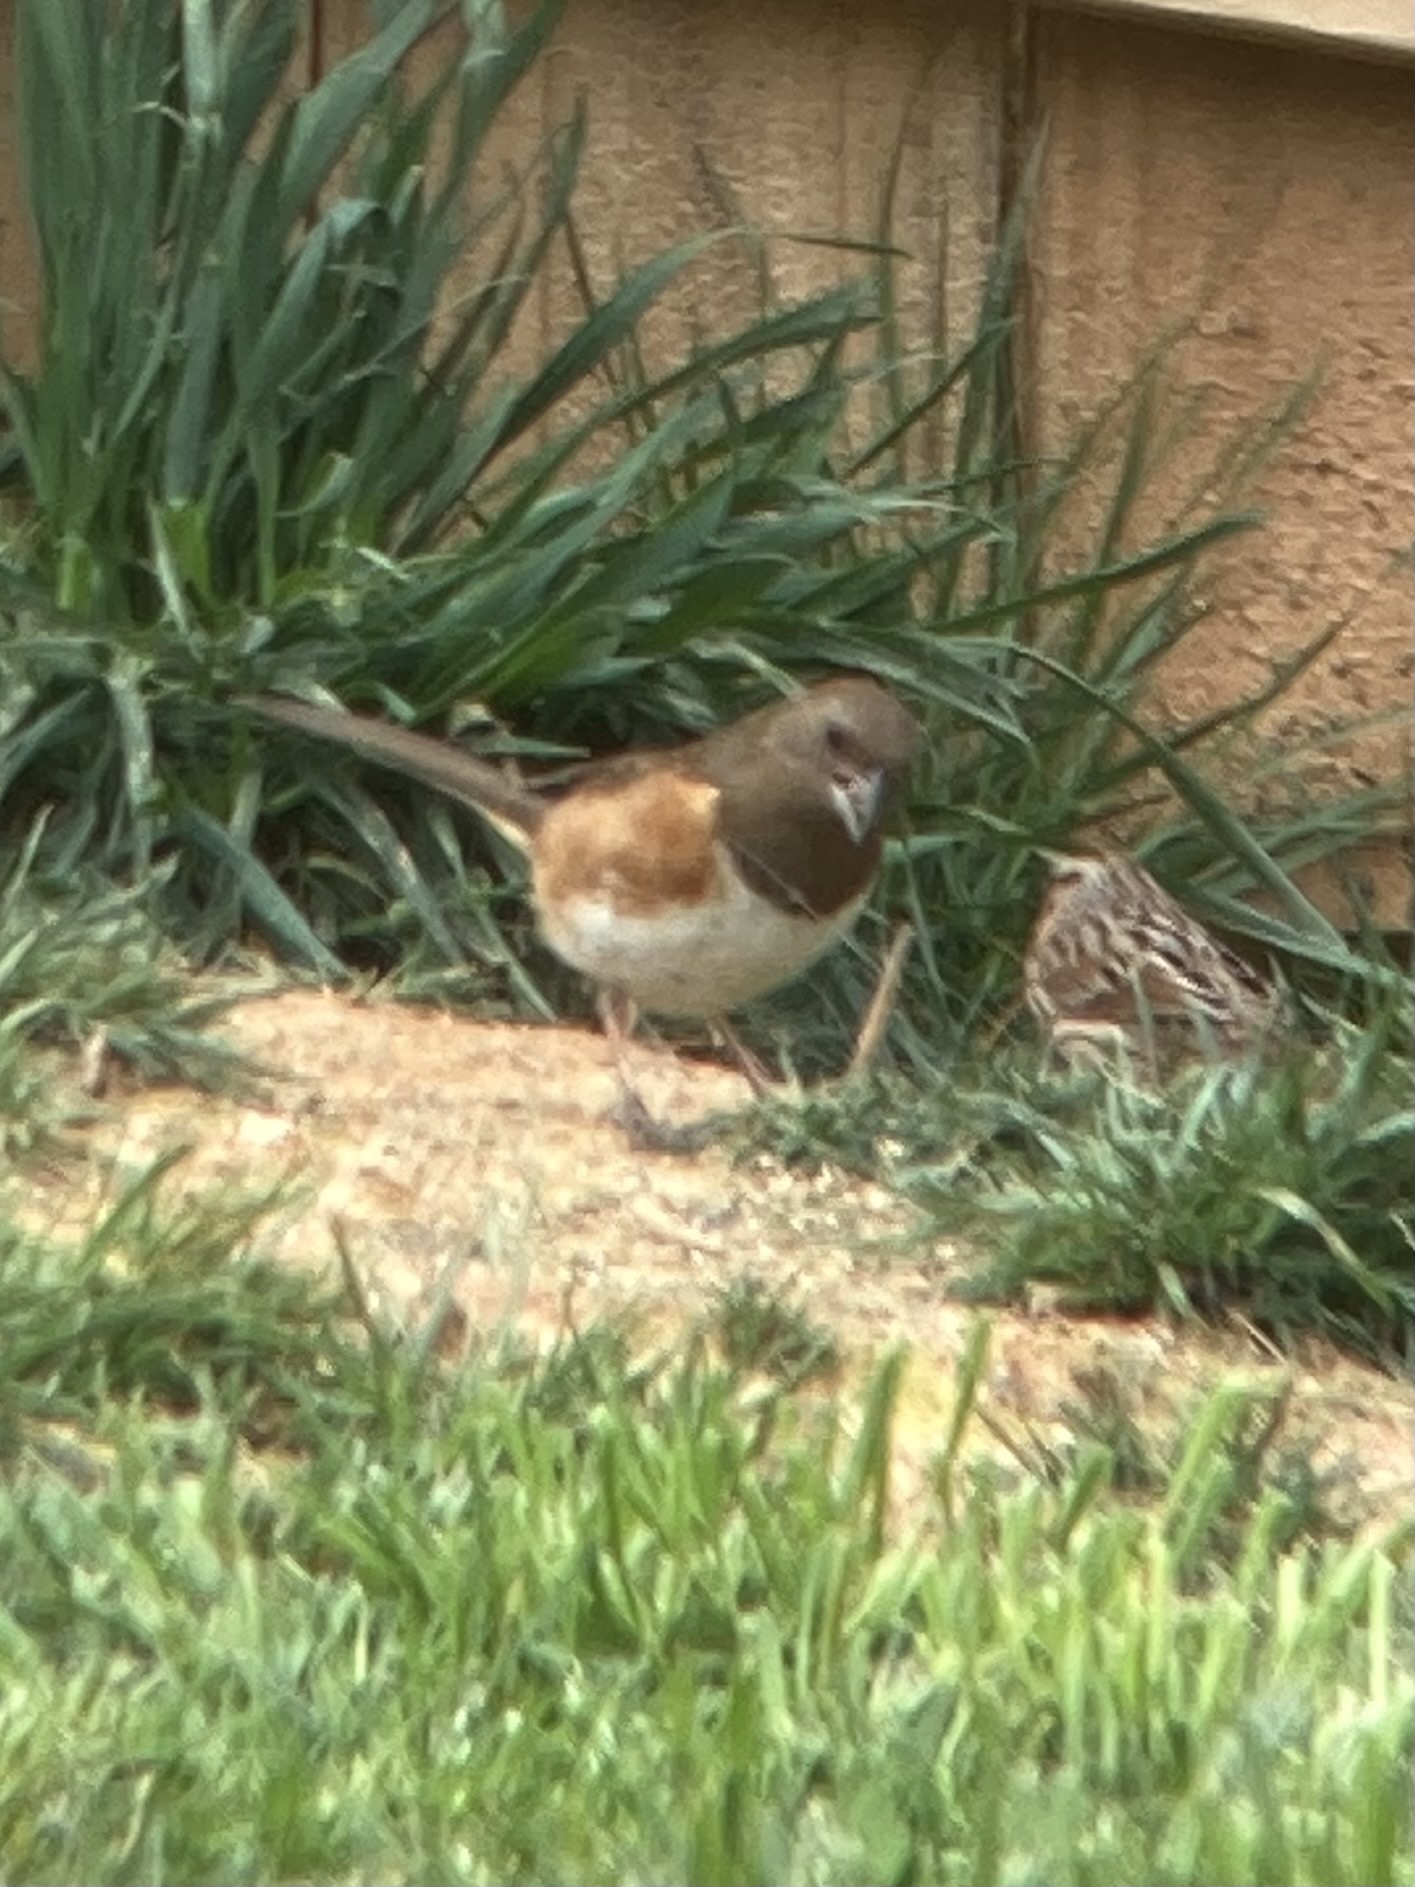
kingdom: Animalia
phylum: Chordata
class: Aves
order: Passeriformes
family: Passerellidae
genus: Pipilo
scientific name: Pipilo erythrophthalmus
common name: Eastern towhee
